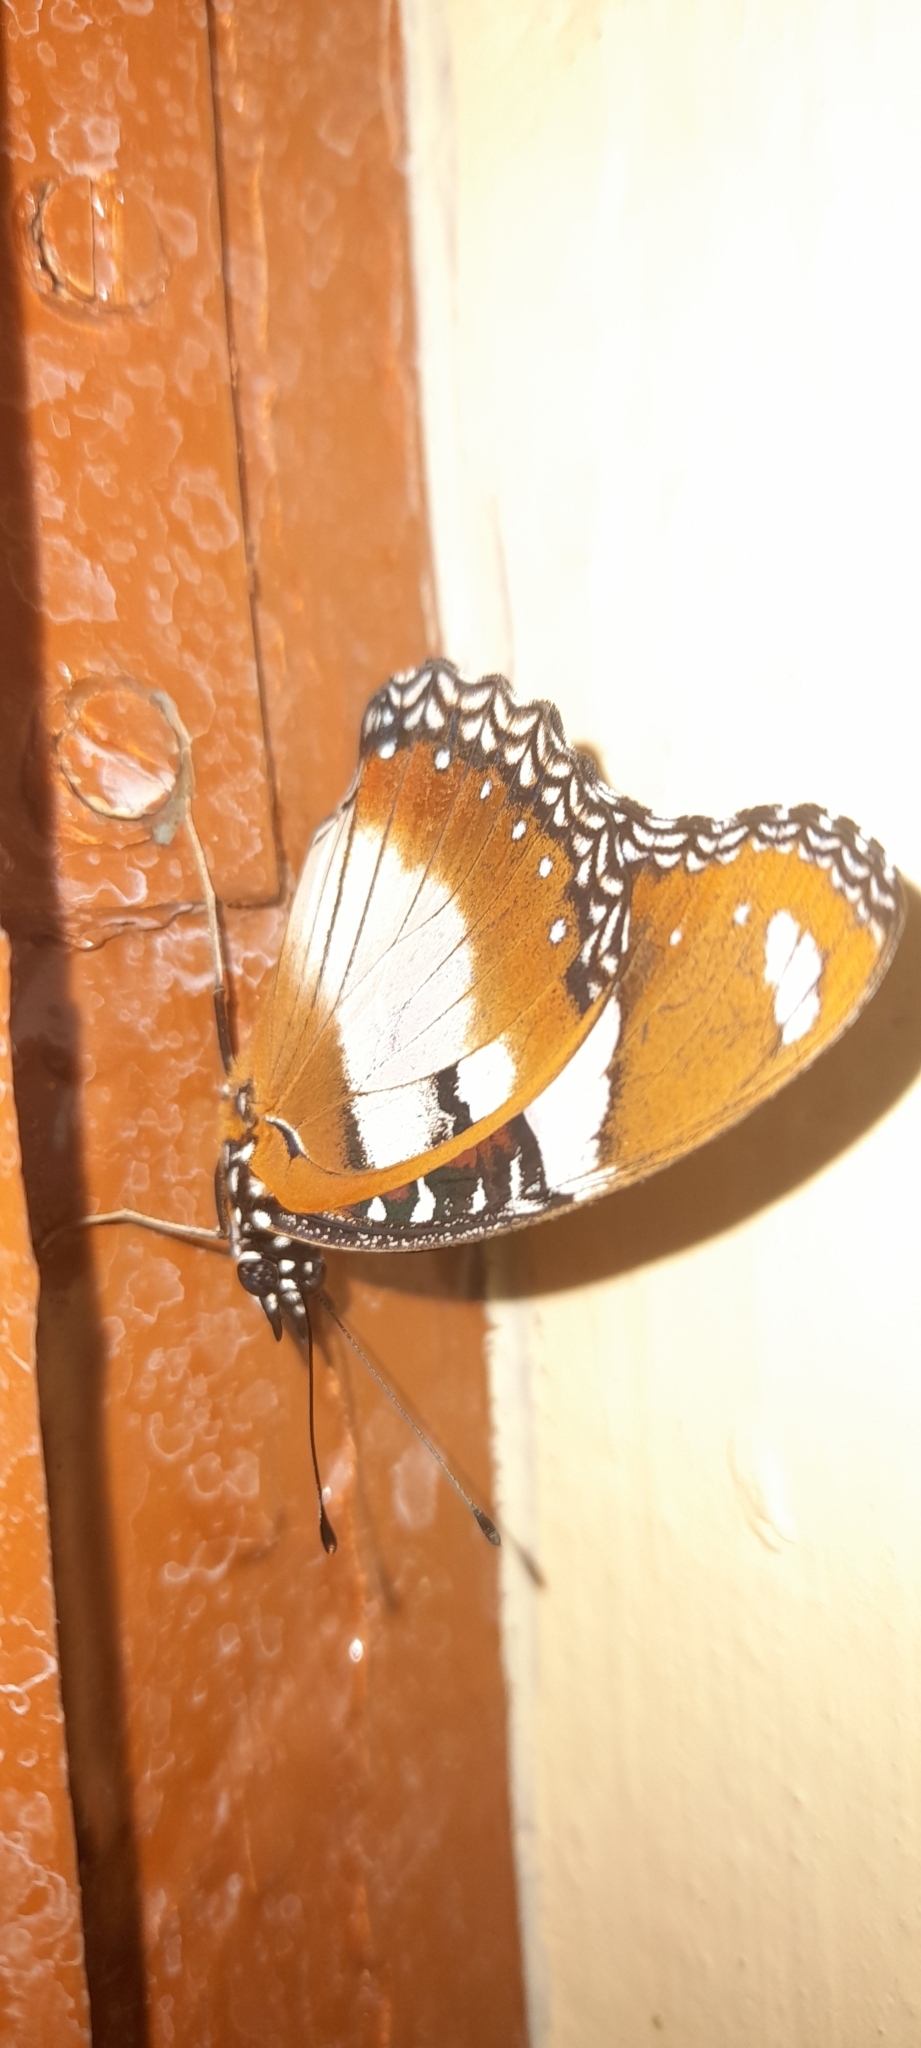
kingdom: Animalia
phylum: Arthropoda
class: Insecta
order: Lepidoptera
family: Nymphalidae
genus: Hypolimnas
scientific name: Hypolimnas misippus
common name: False plain tiger
